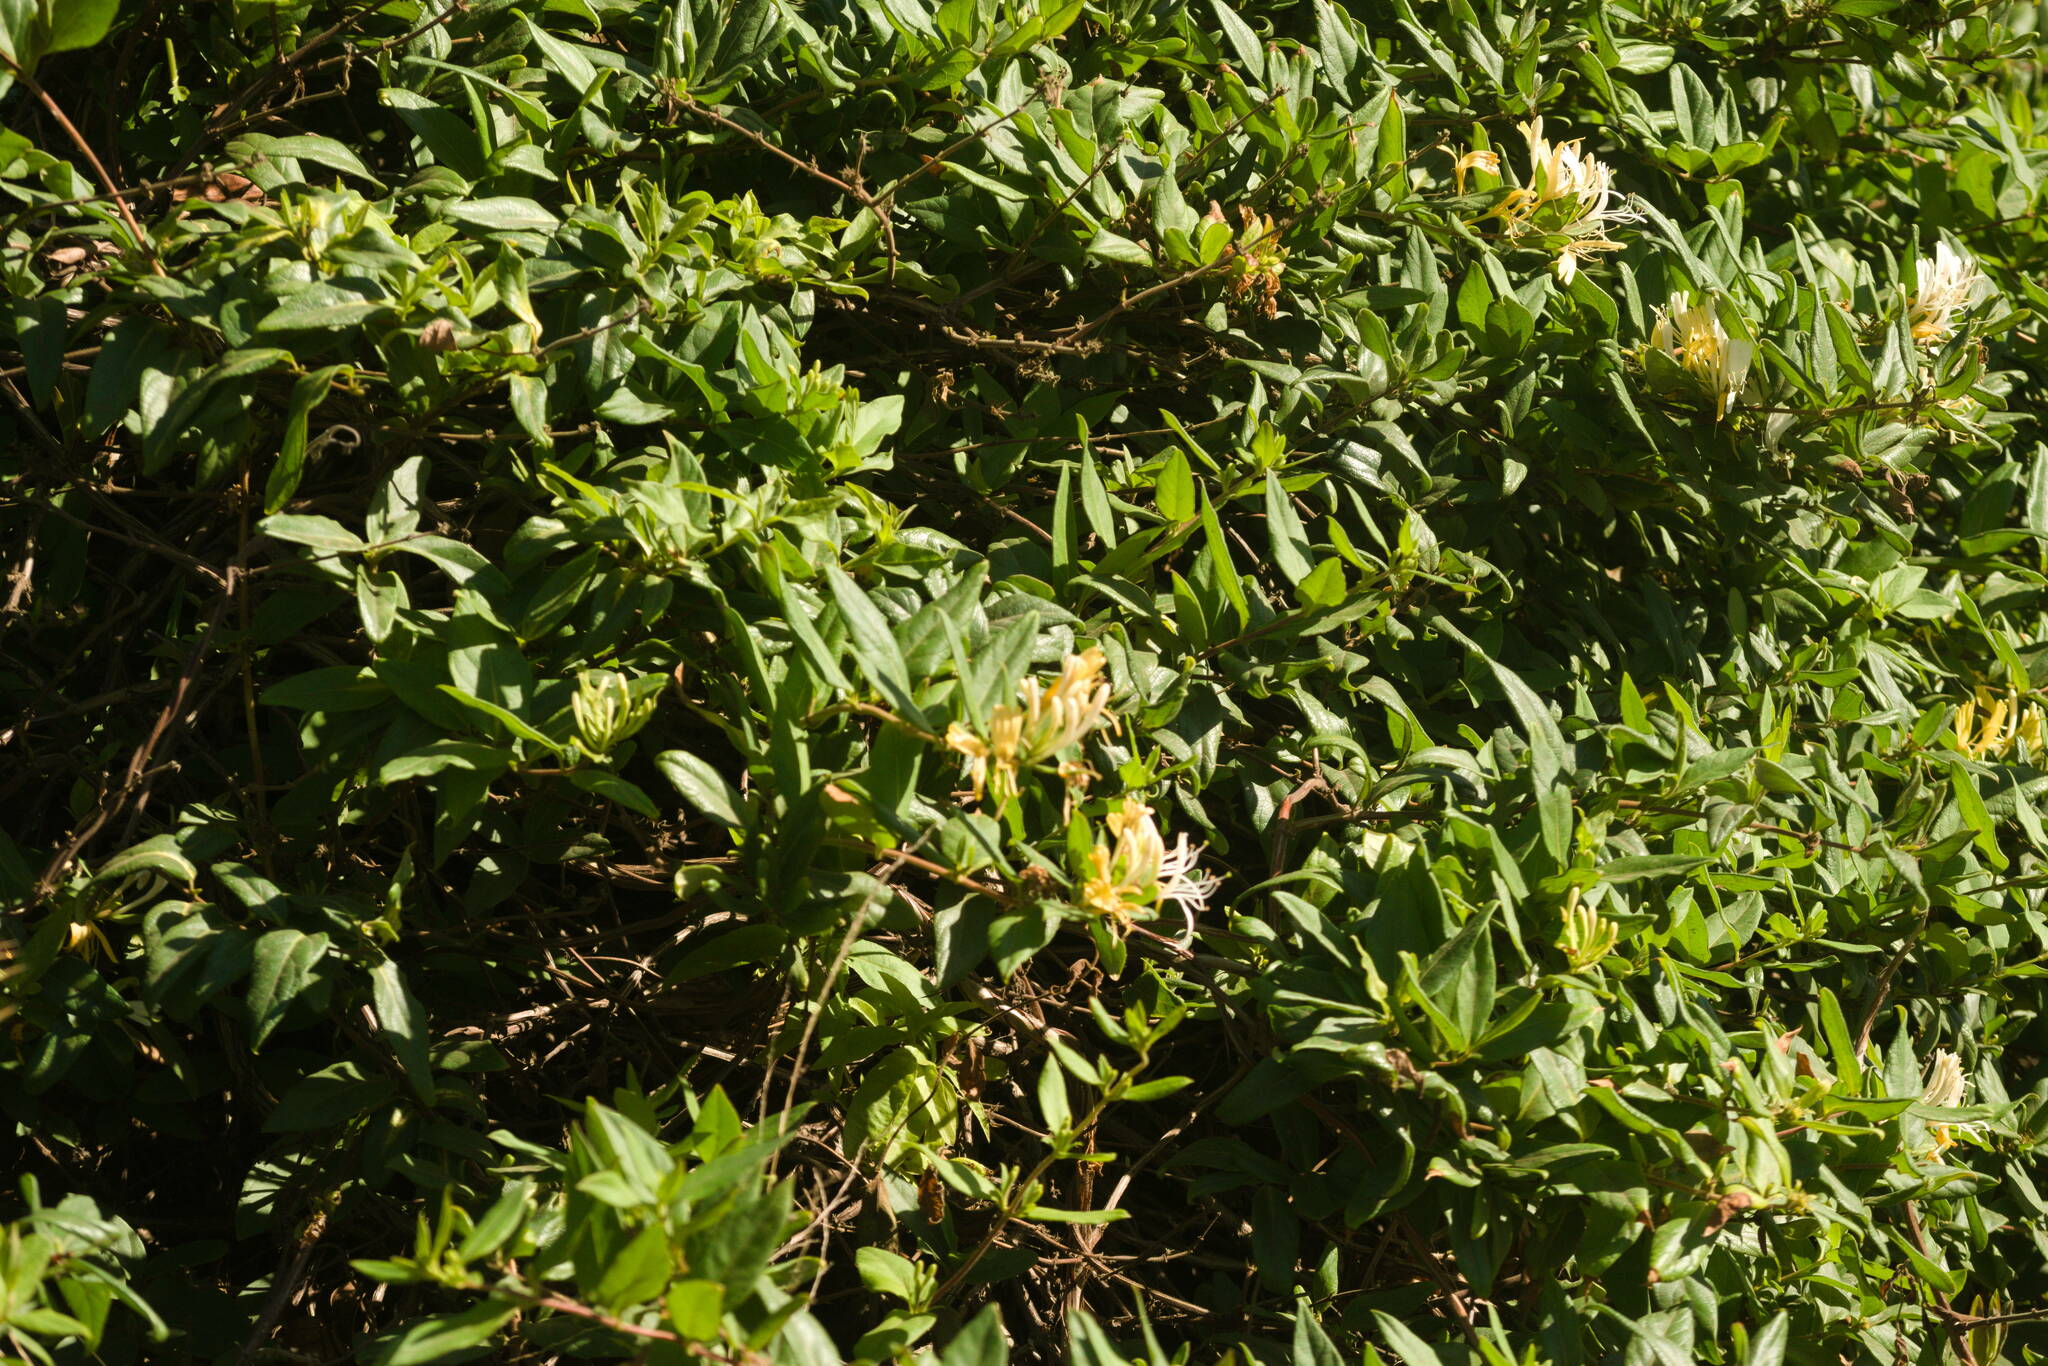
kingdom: Plantae
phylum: Tracheophyta
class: Magnoliopsida
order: Dipsacales
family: Caprifoliaceae
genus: Lonicera
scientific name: Lonicera japonica
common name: Japanese honeysuckle
